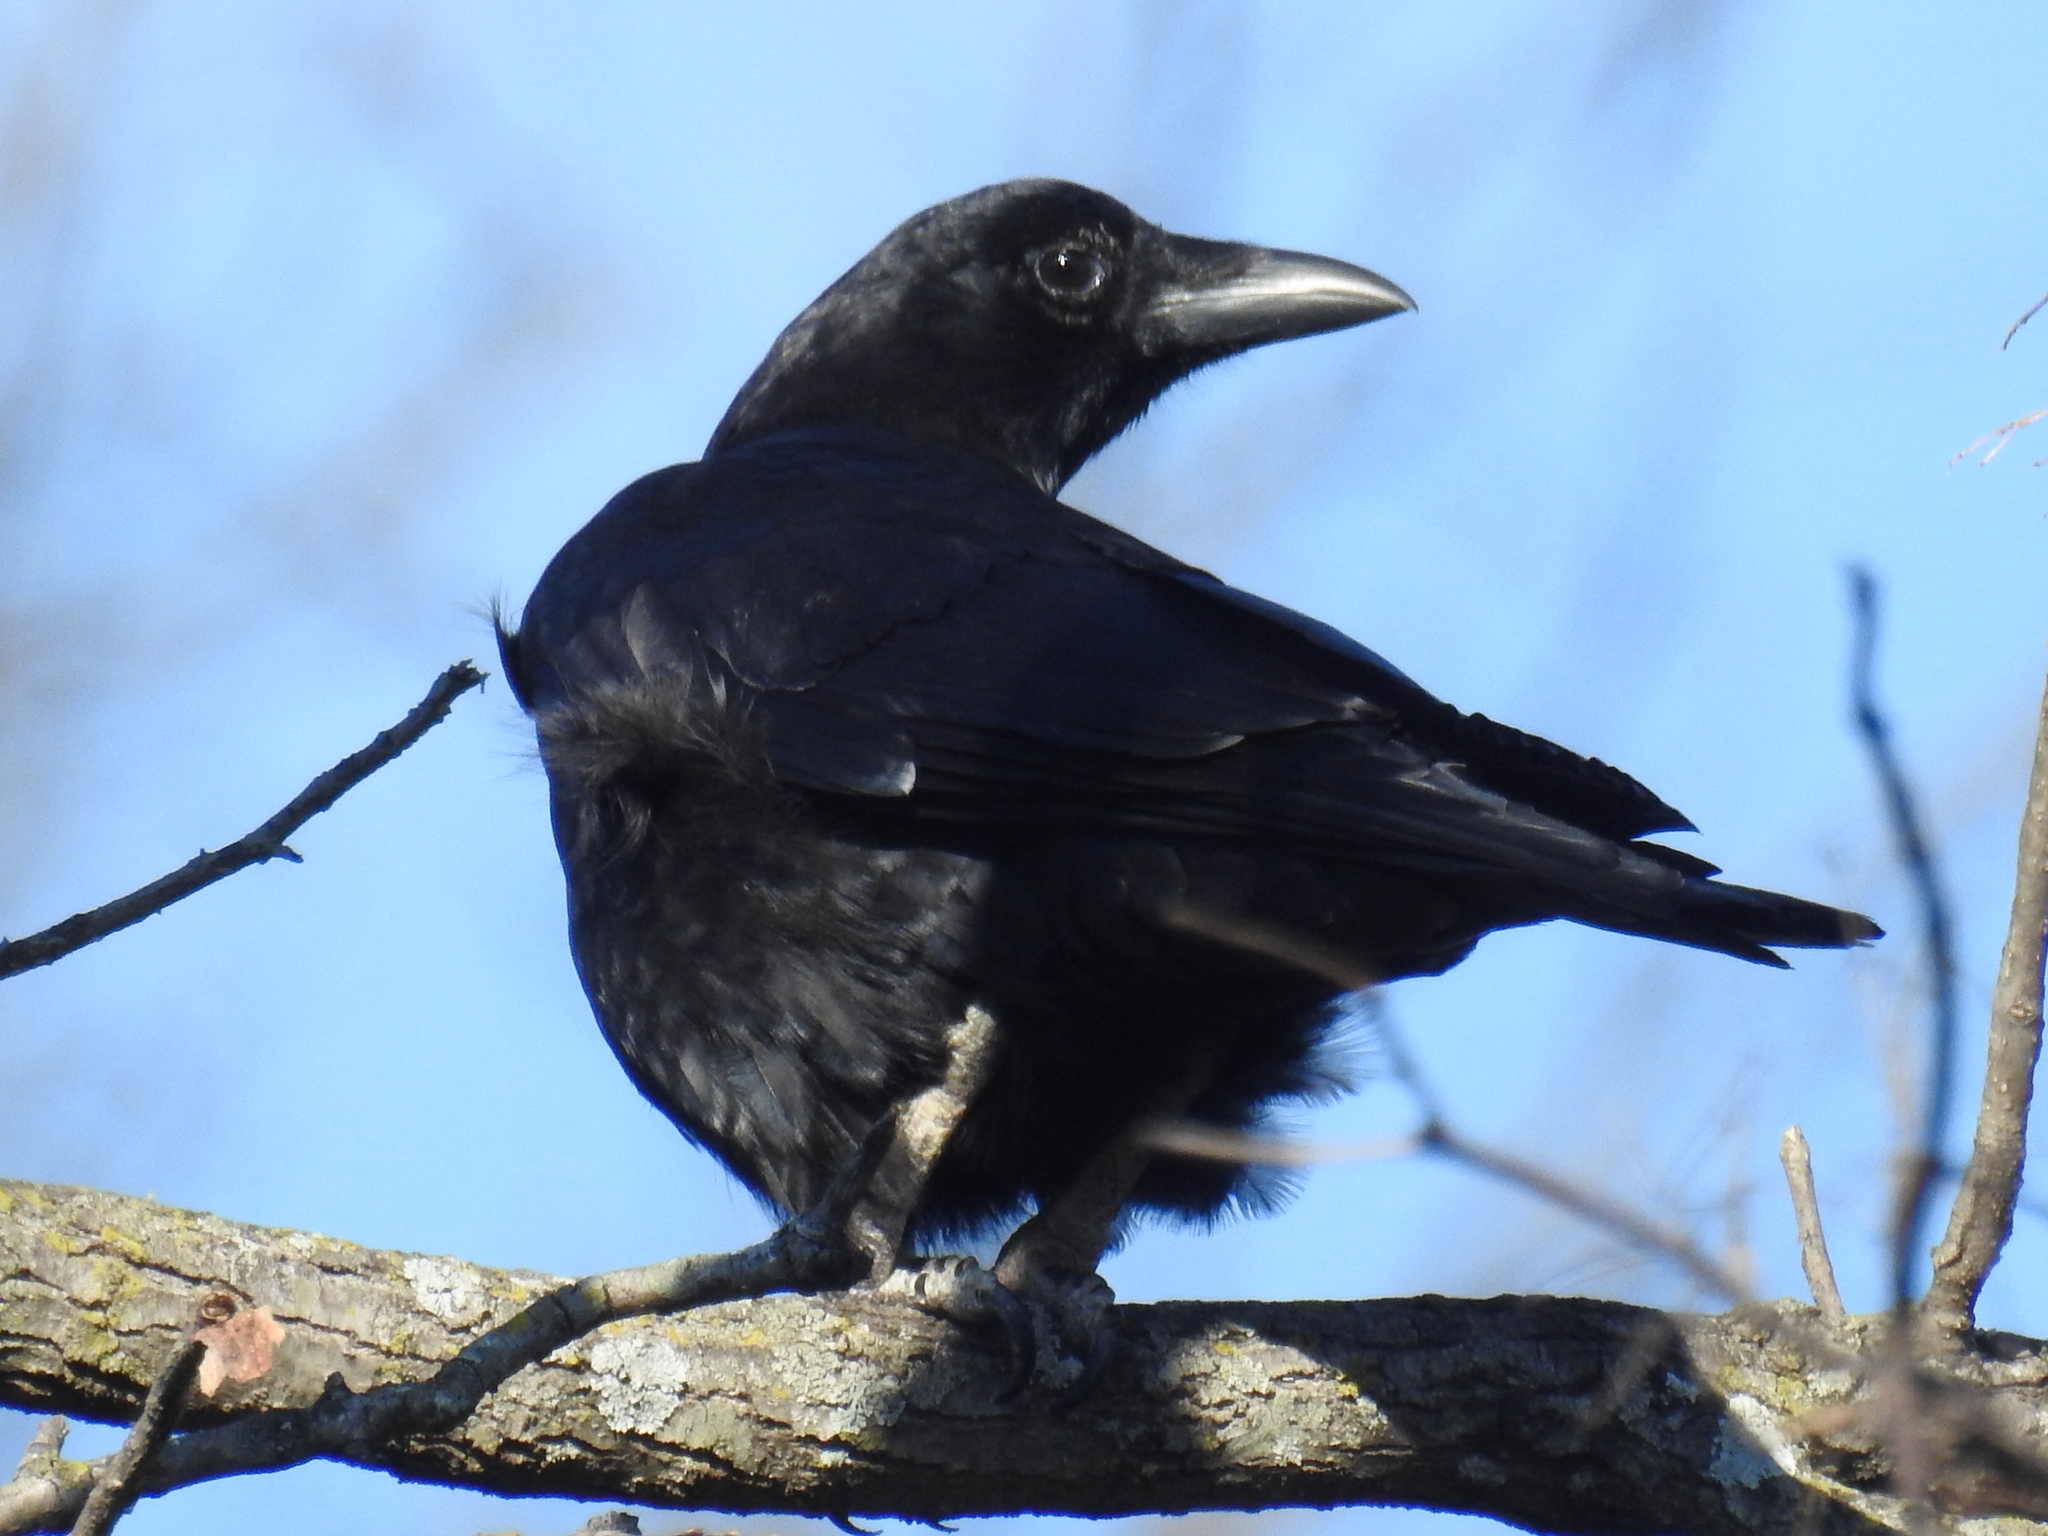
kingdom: Animalia
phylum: Chordata
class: Aves
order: Passeriformes
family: Corvidae
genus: Corvus
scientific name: Corvus brachyrhynchos
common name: American crow
